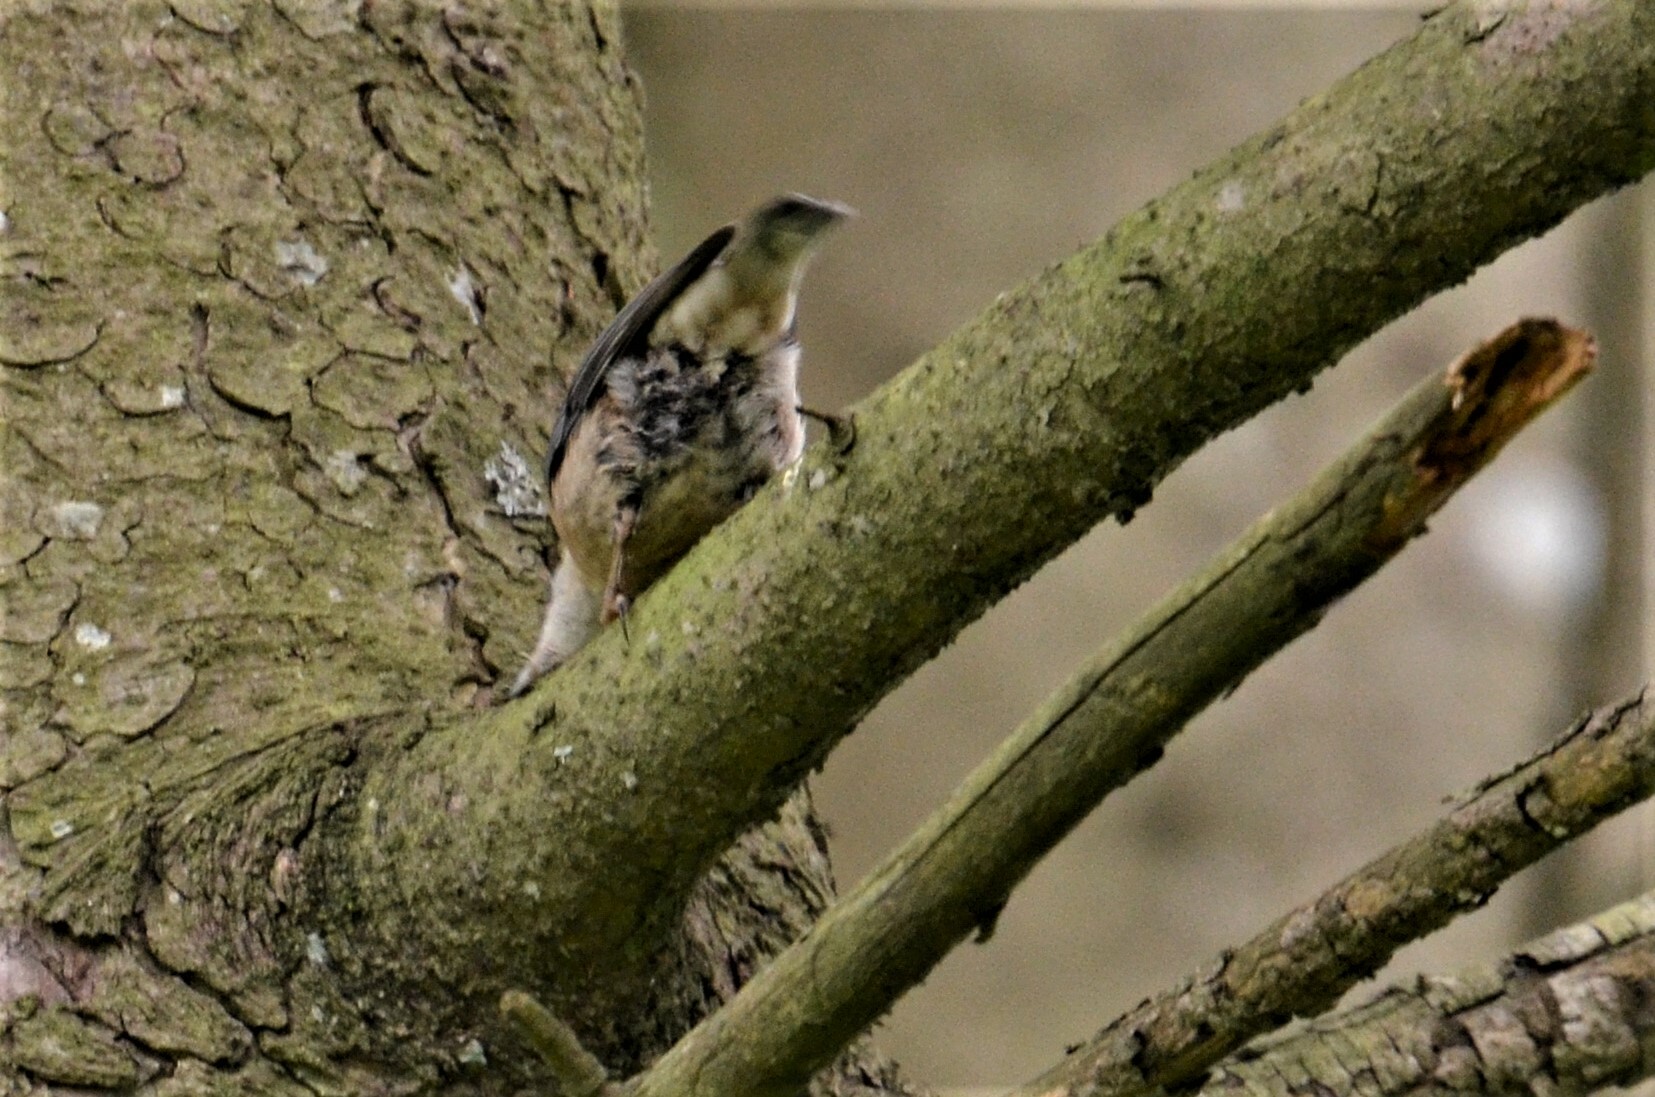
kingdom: Animalia
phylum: Chordata
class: Aves
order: Passeriformes
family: Sittidae
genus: Sitta
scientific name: Sitta europaea
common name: Eurasian nuthatch
